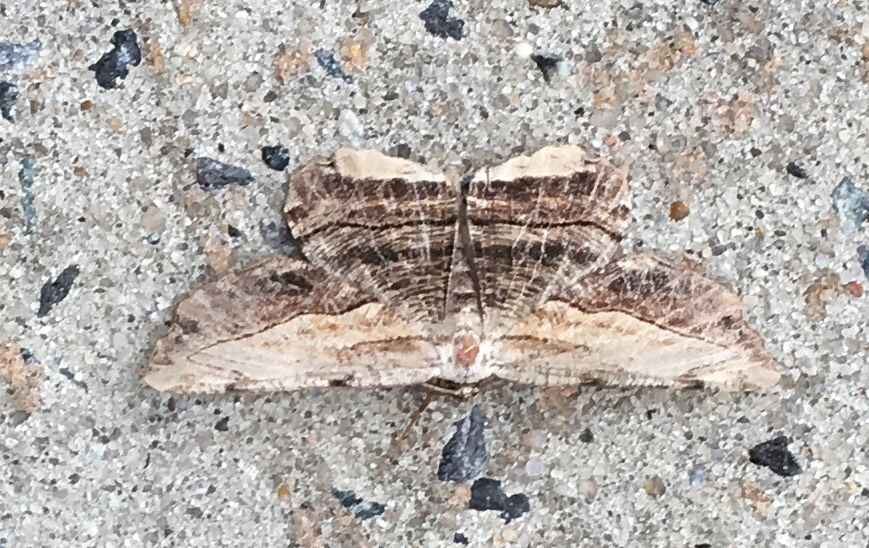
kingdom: Animalia
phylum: Arthropoda
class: Insecta
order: Lepidoptera
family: Geometridae
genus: Lytrosis
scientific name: Lytrosis unitaria
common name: Common lytrosis
